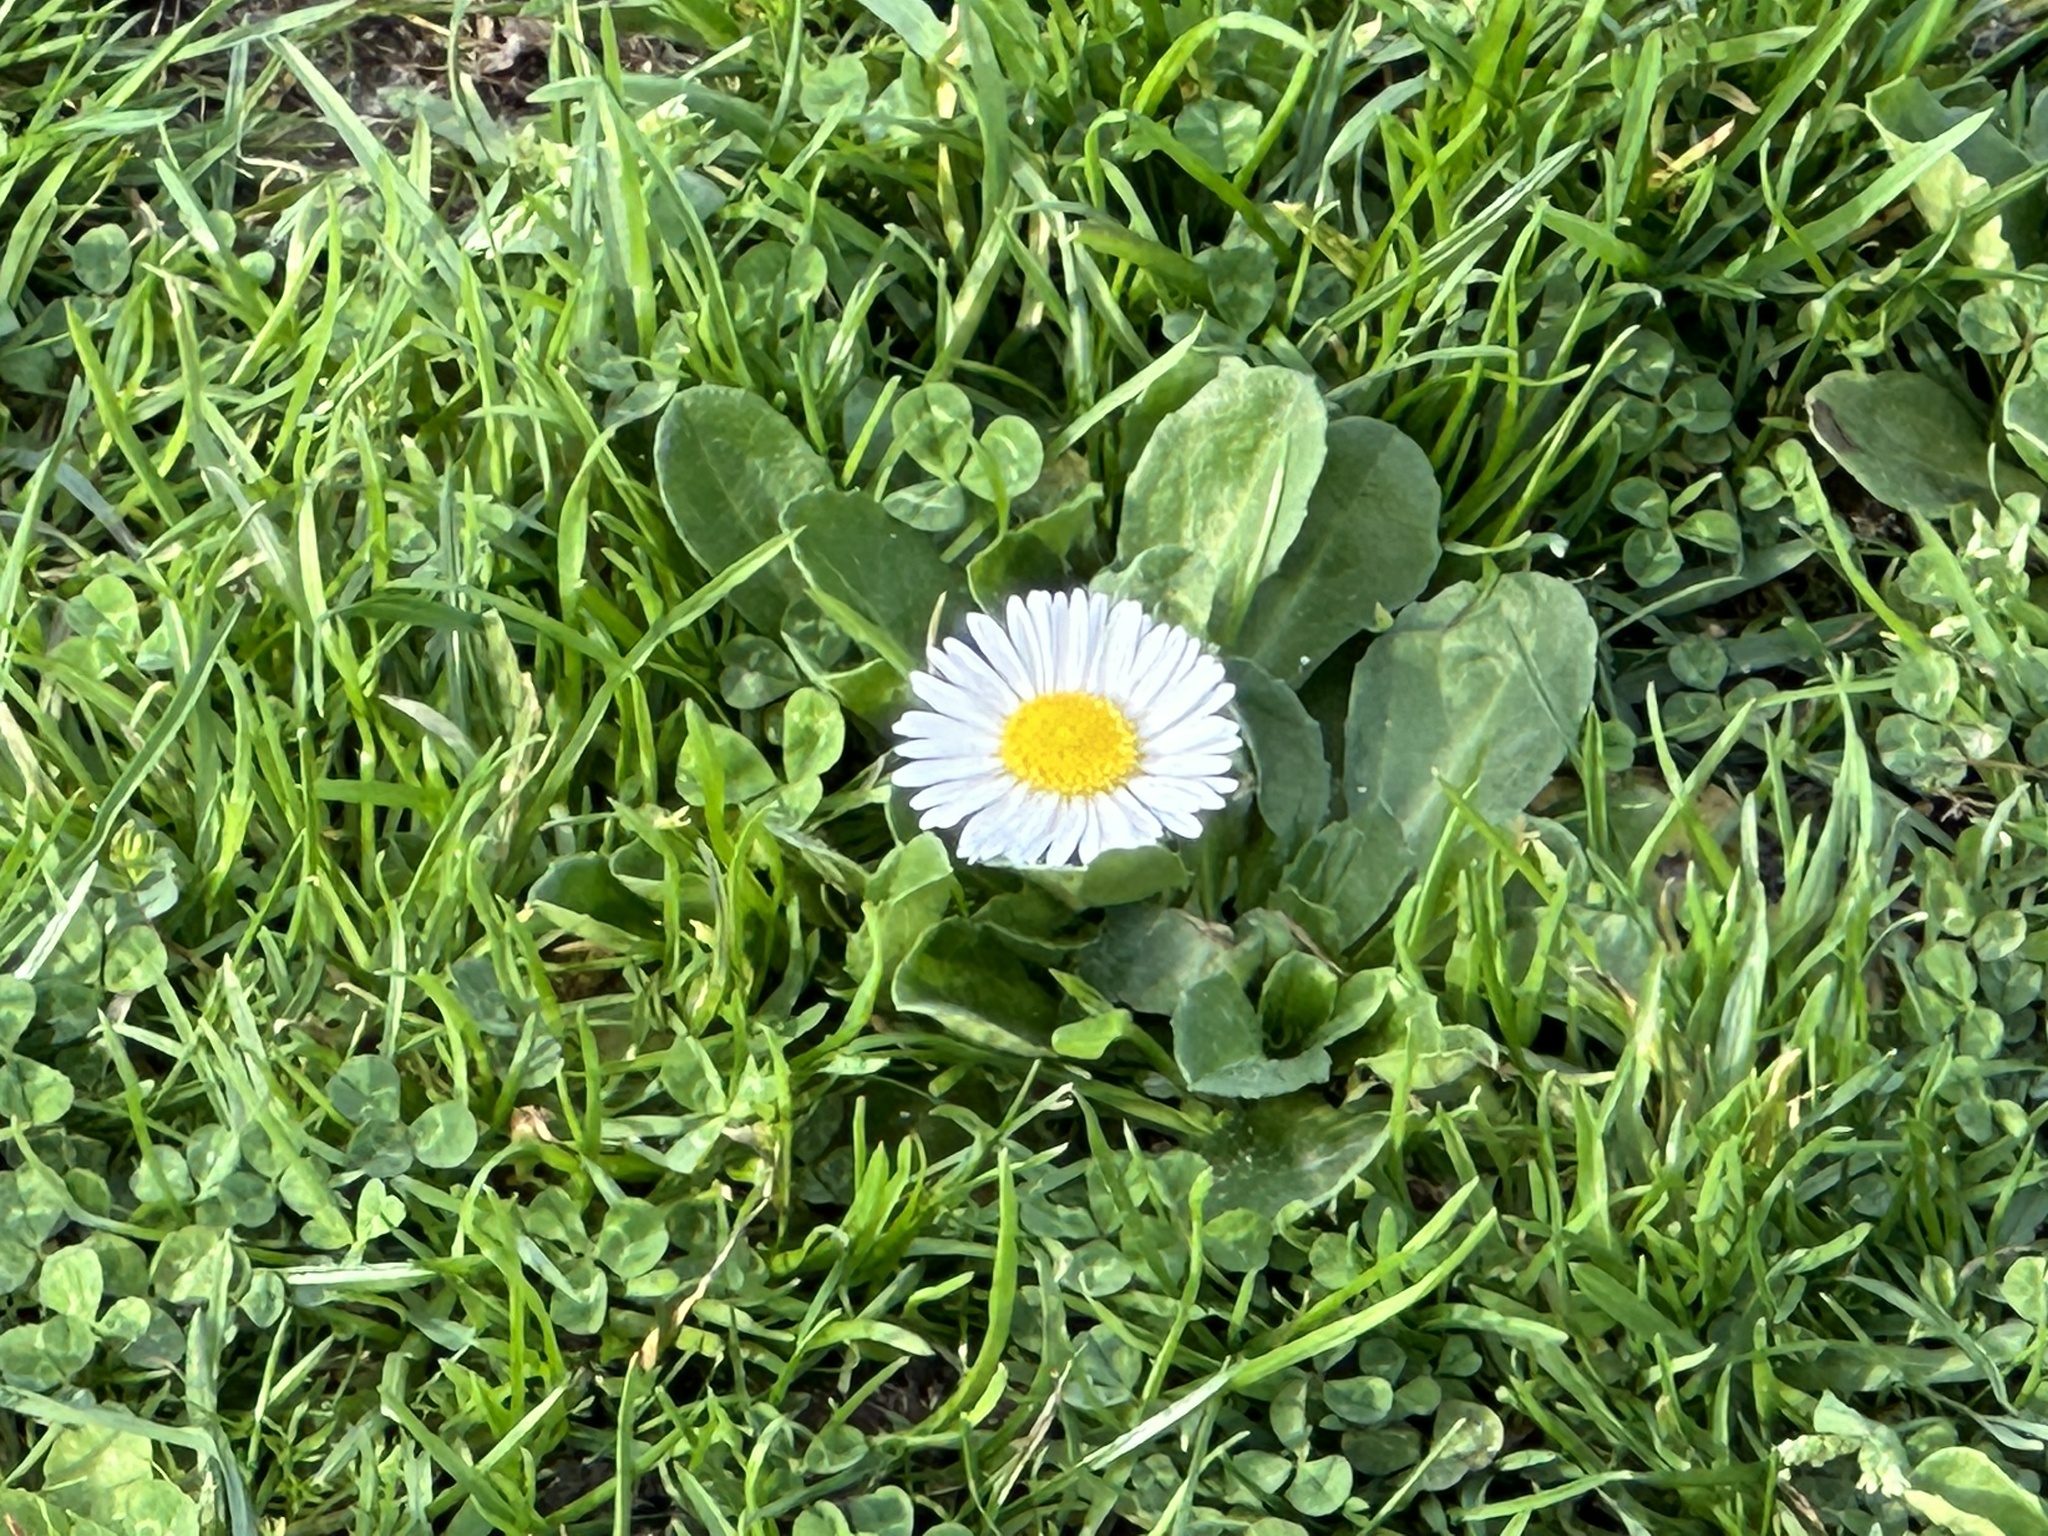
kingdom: Plantae
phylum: Tracheophyta
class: Magnoliopsida
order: Asterales
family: Asteraceae
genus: Bellis
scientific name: Bellis perennis
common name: Lawndaisy
